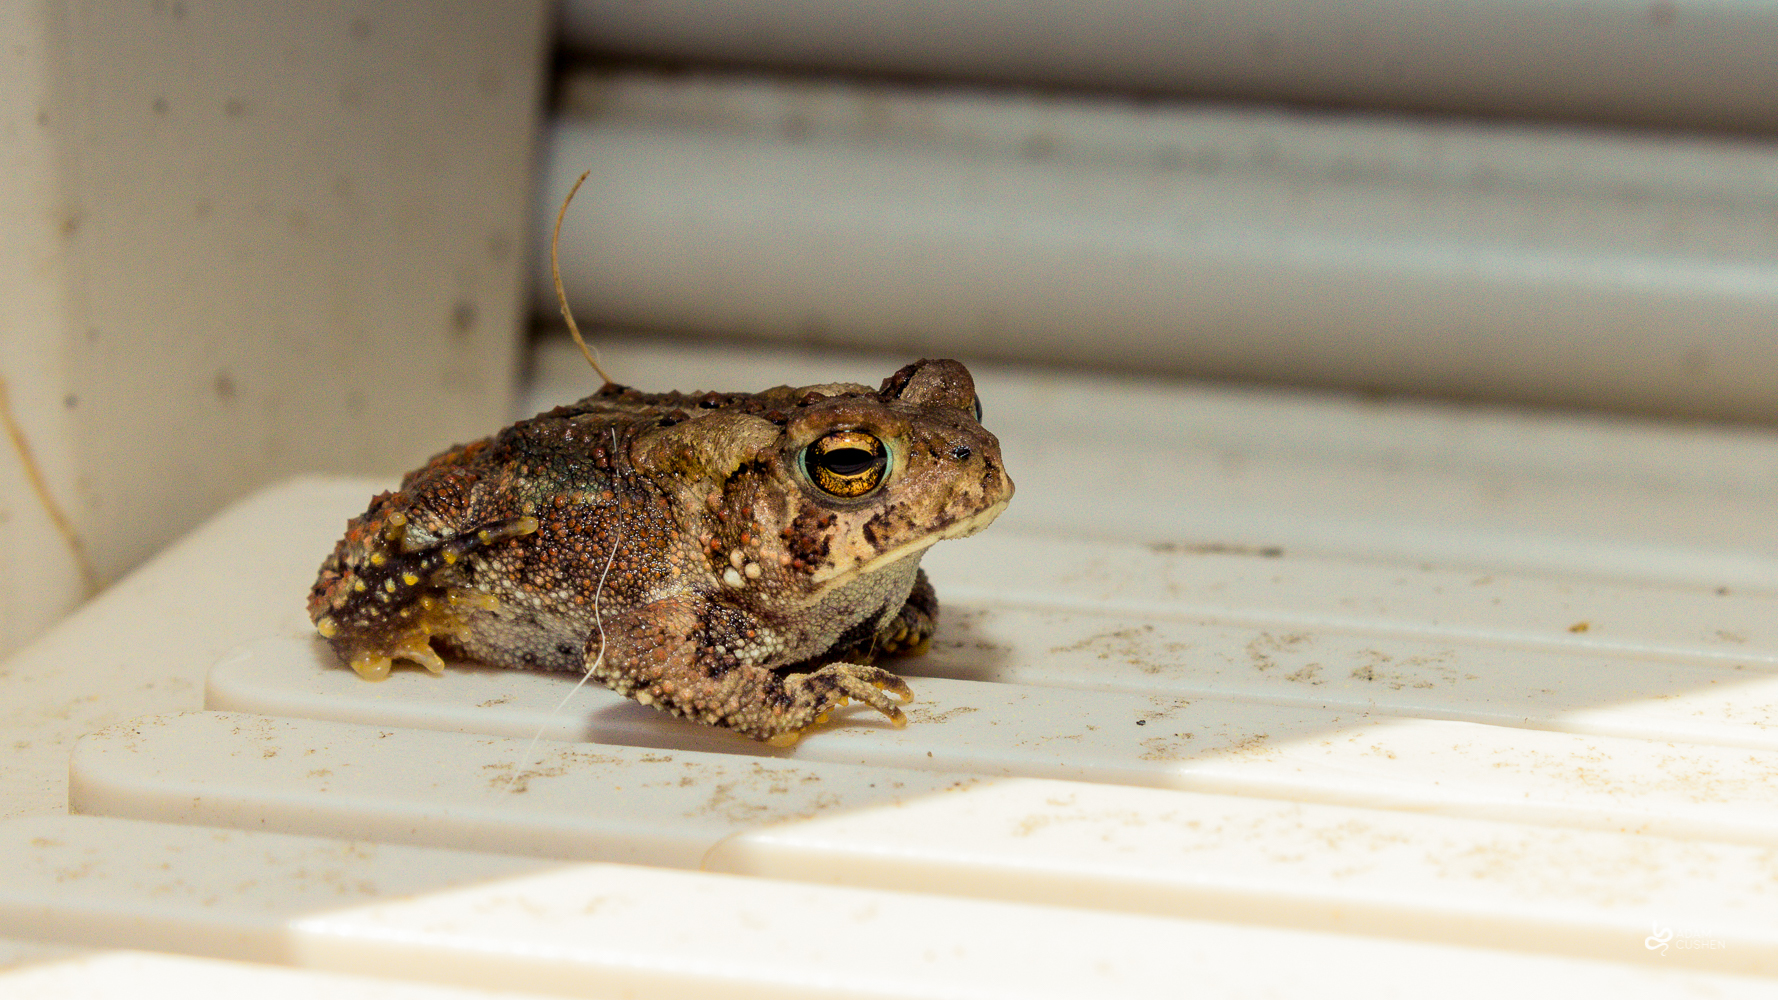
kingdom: Animalia
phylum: Chordata
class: Amphibia
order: Anura
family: Bufonidae
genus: Anaxyrus
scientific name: Anaxyrus americanus
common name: American toad
